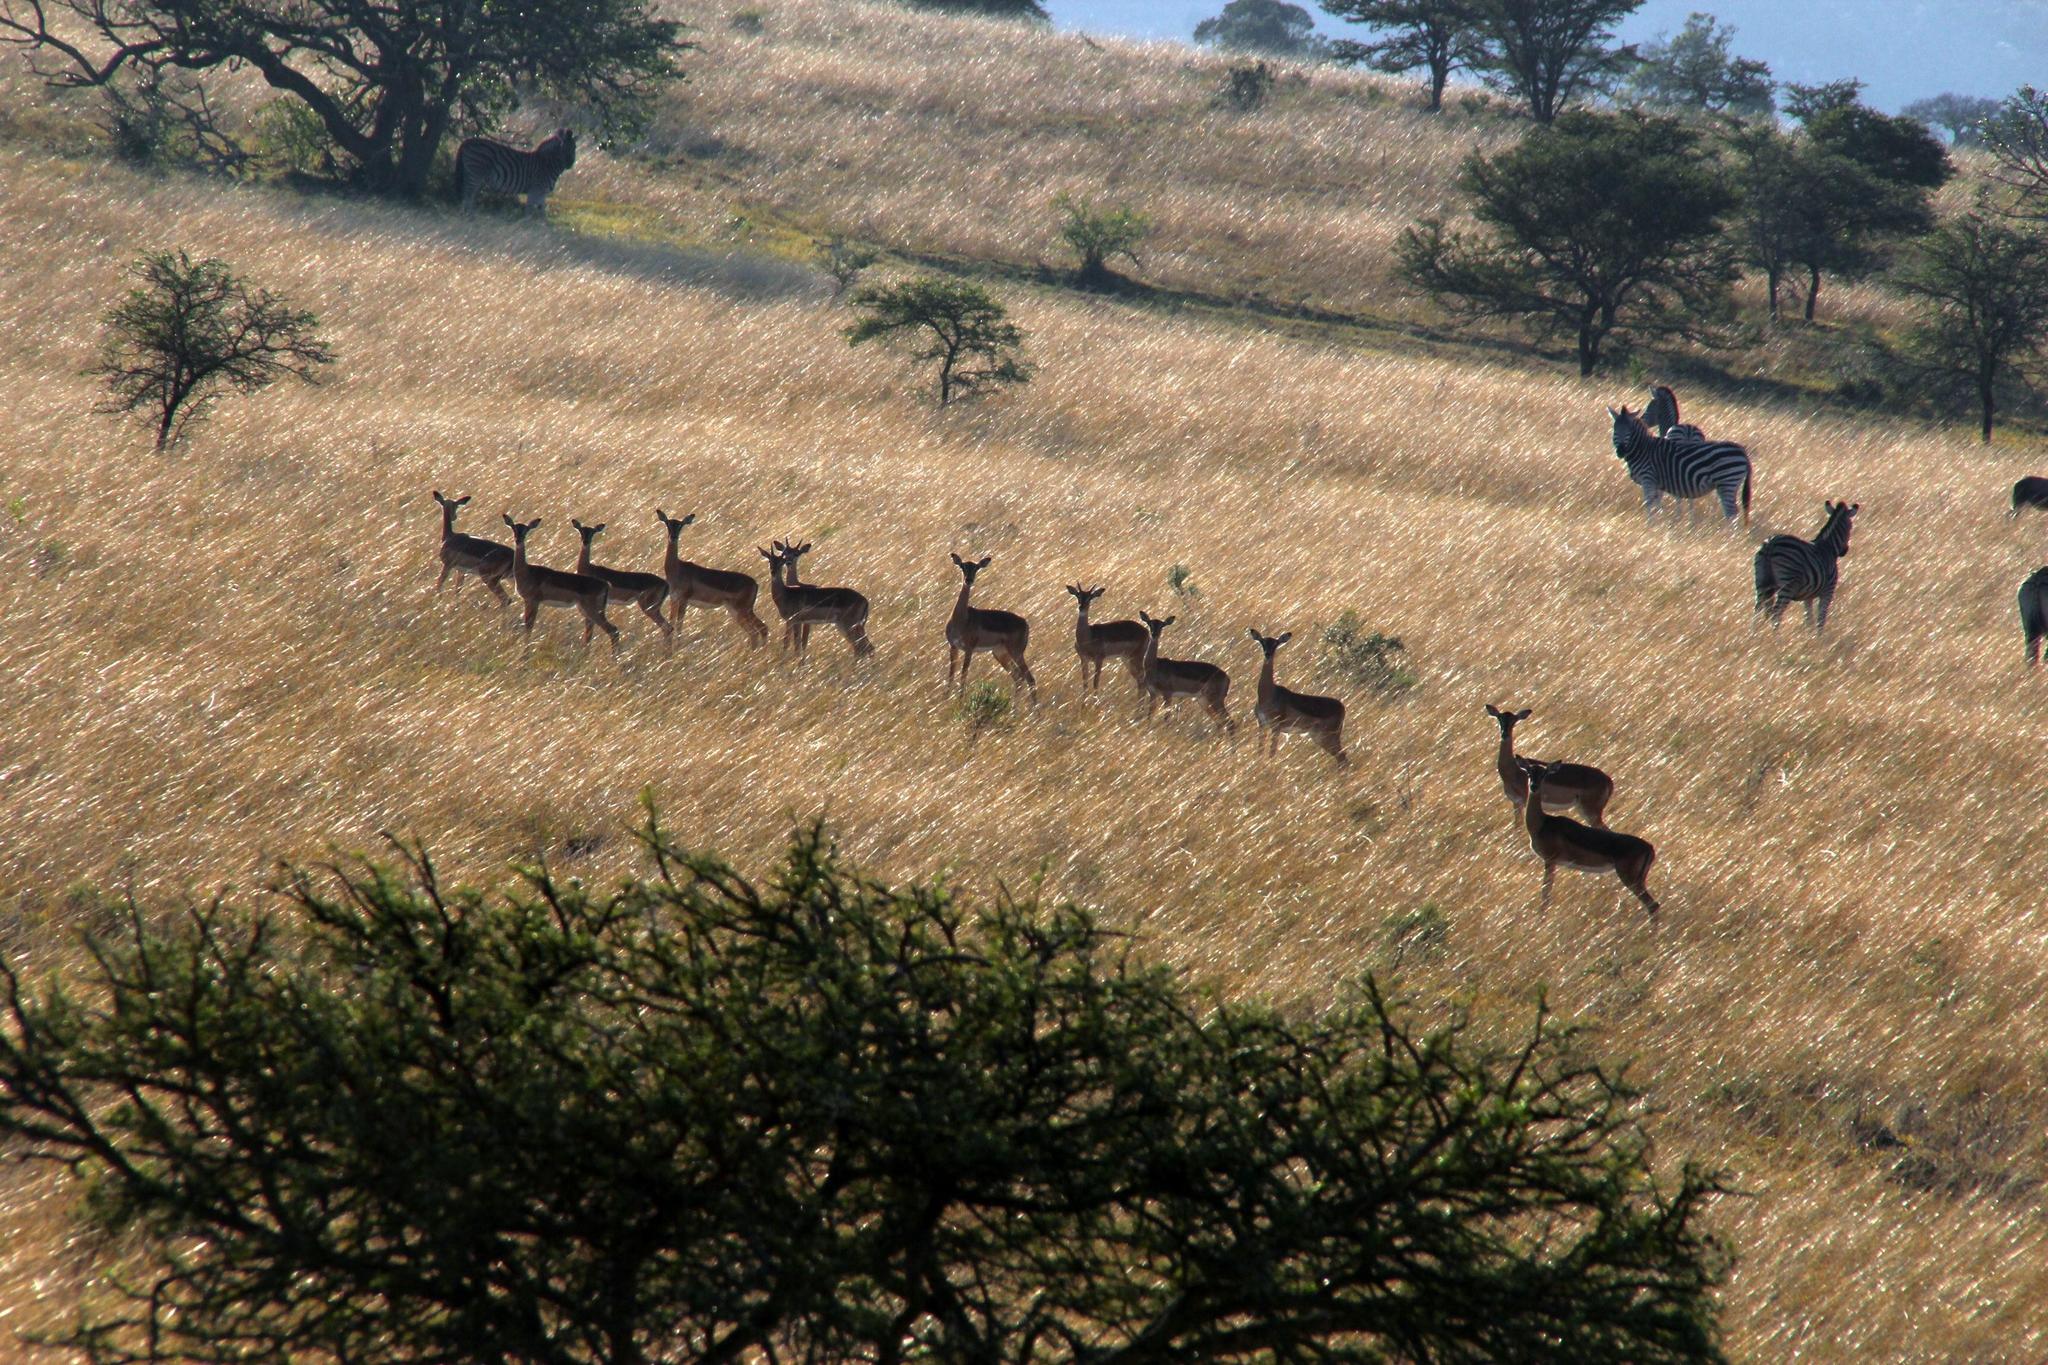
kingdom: Animalia
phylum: Chordata
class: Mammalia
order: Artiodactyla
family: Bovidae
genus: Aepyceros
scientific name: Aepyceros melampus
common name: Impala
